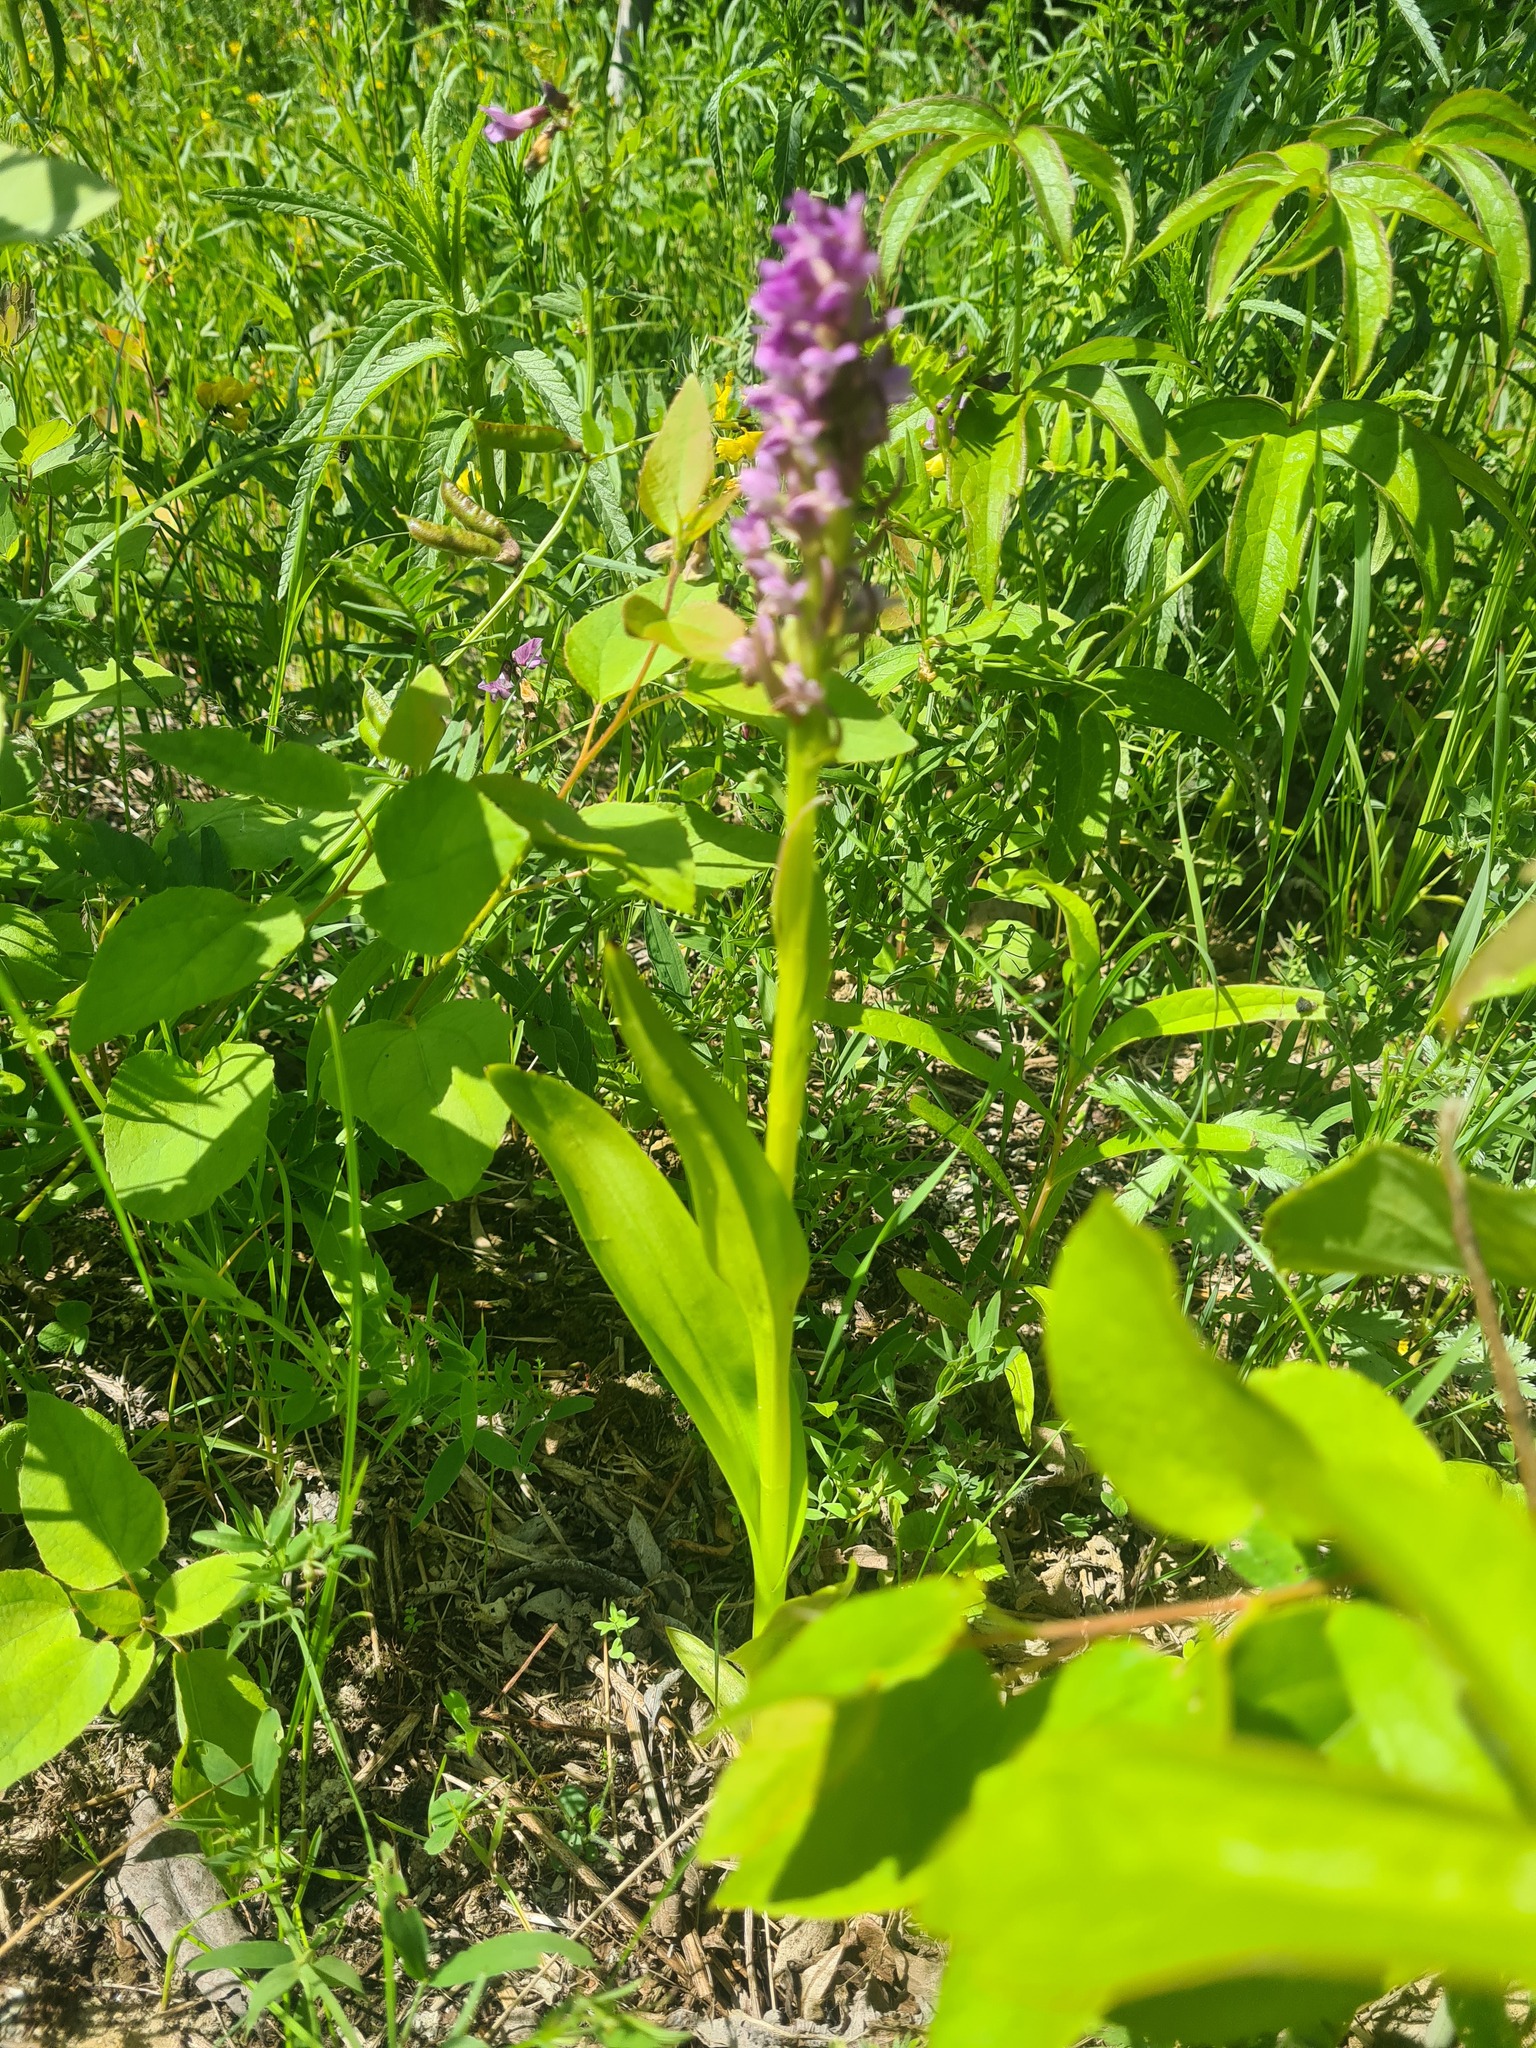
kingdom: Plantae
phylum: Tracheophyta
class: Liliopsida
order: Asparagales
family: Orchidaceae
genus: Dactylorhiza
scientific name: Dactylorhiza incarnata
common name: Early marsh-orchid
